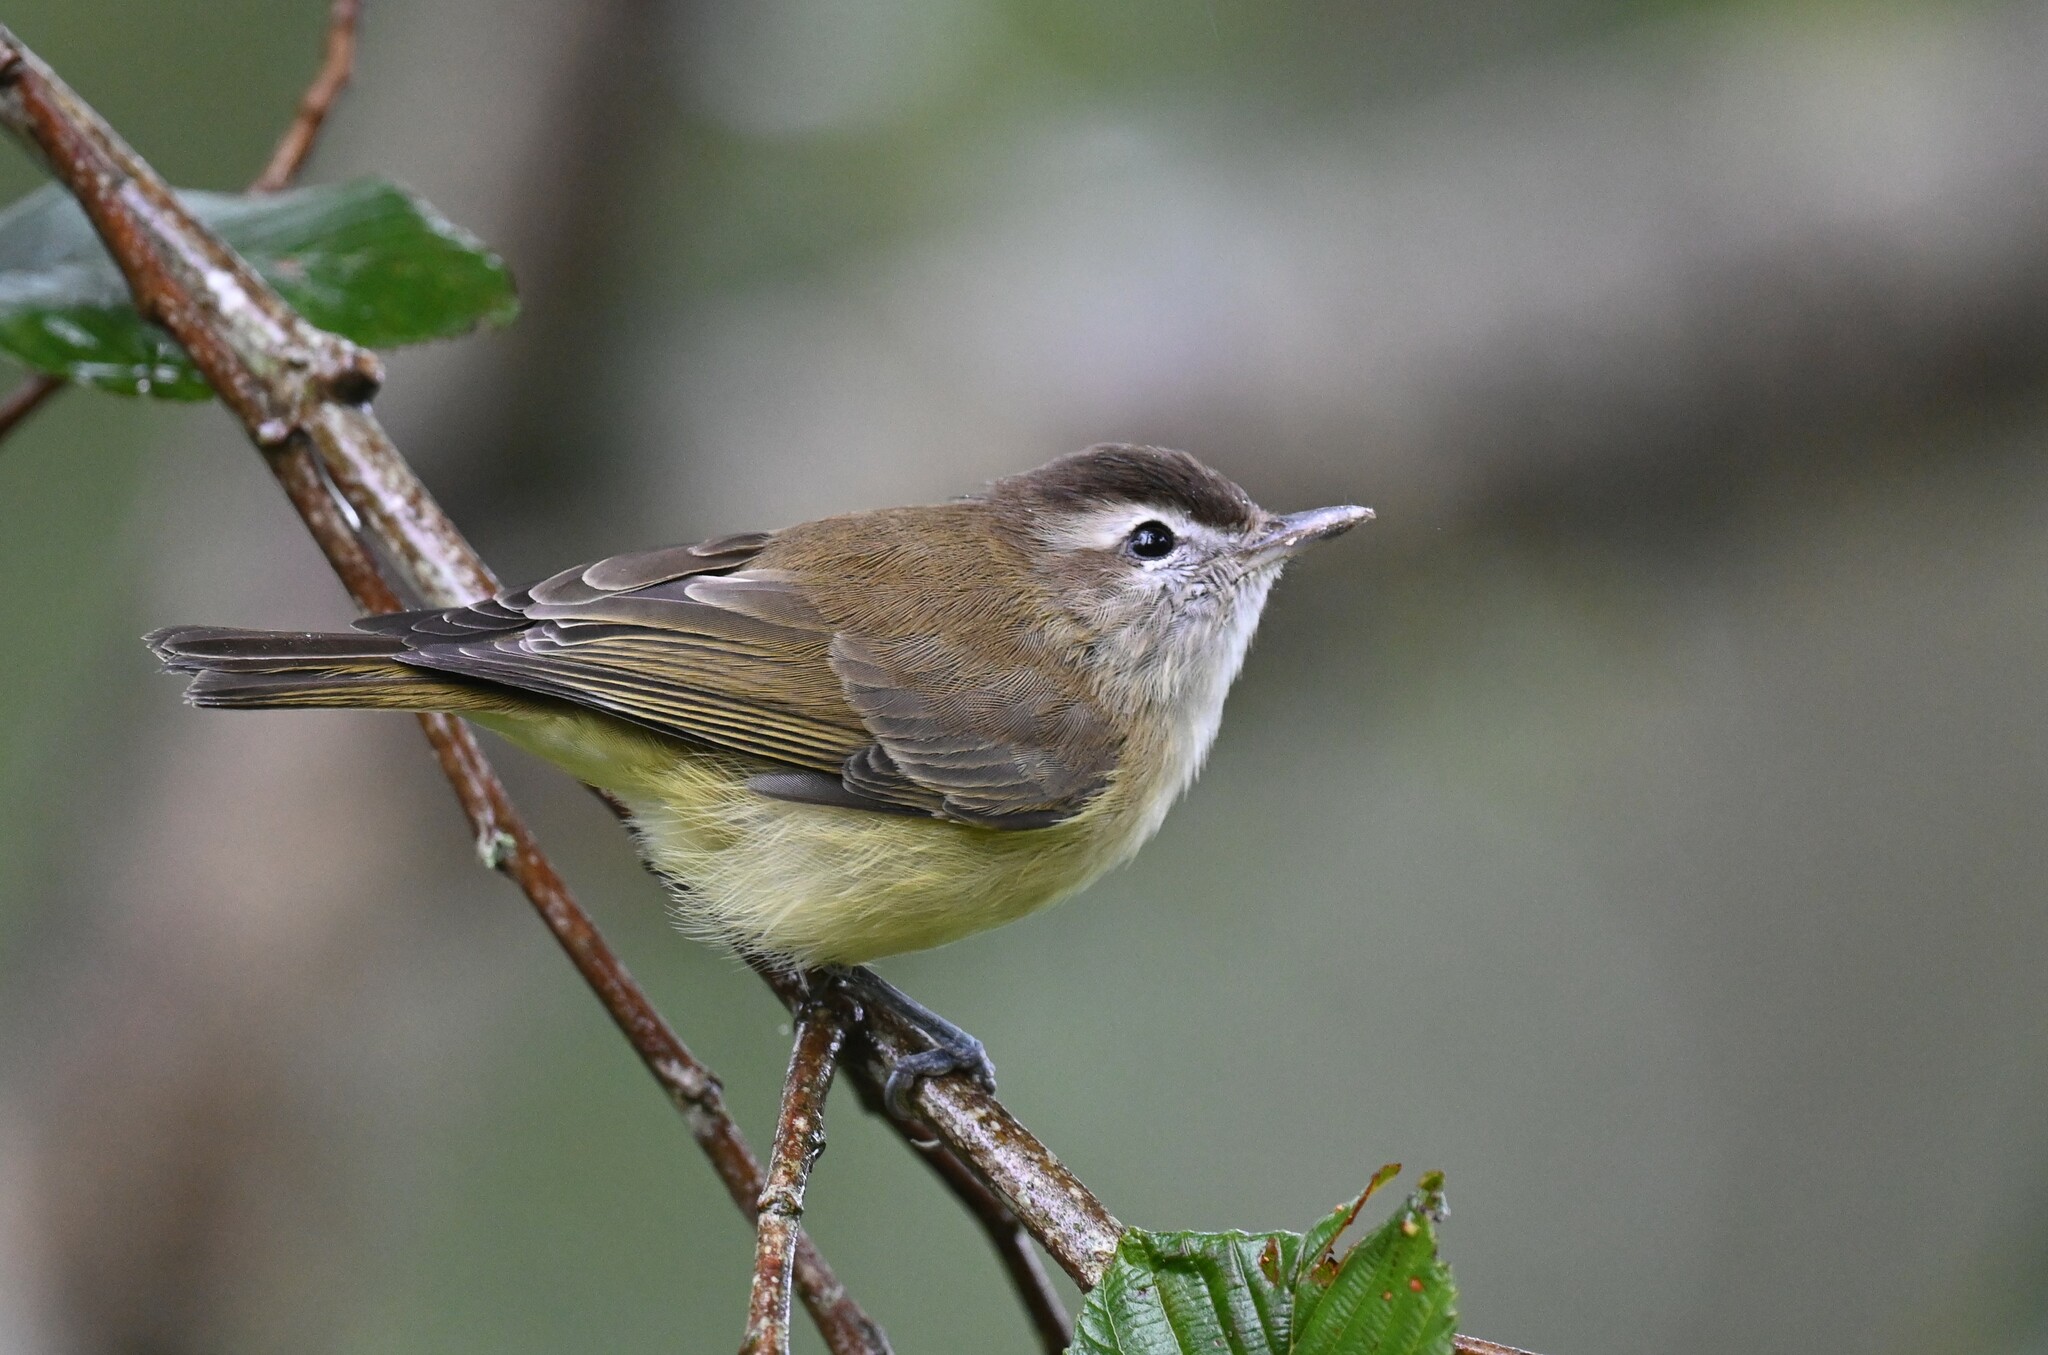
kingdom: Animalia
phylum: Chordata
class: Aves
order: Passeriformes
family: Vireonidae
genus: Vireo
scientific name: Vireo leucophrys
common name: Brown-capped vireo
